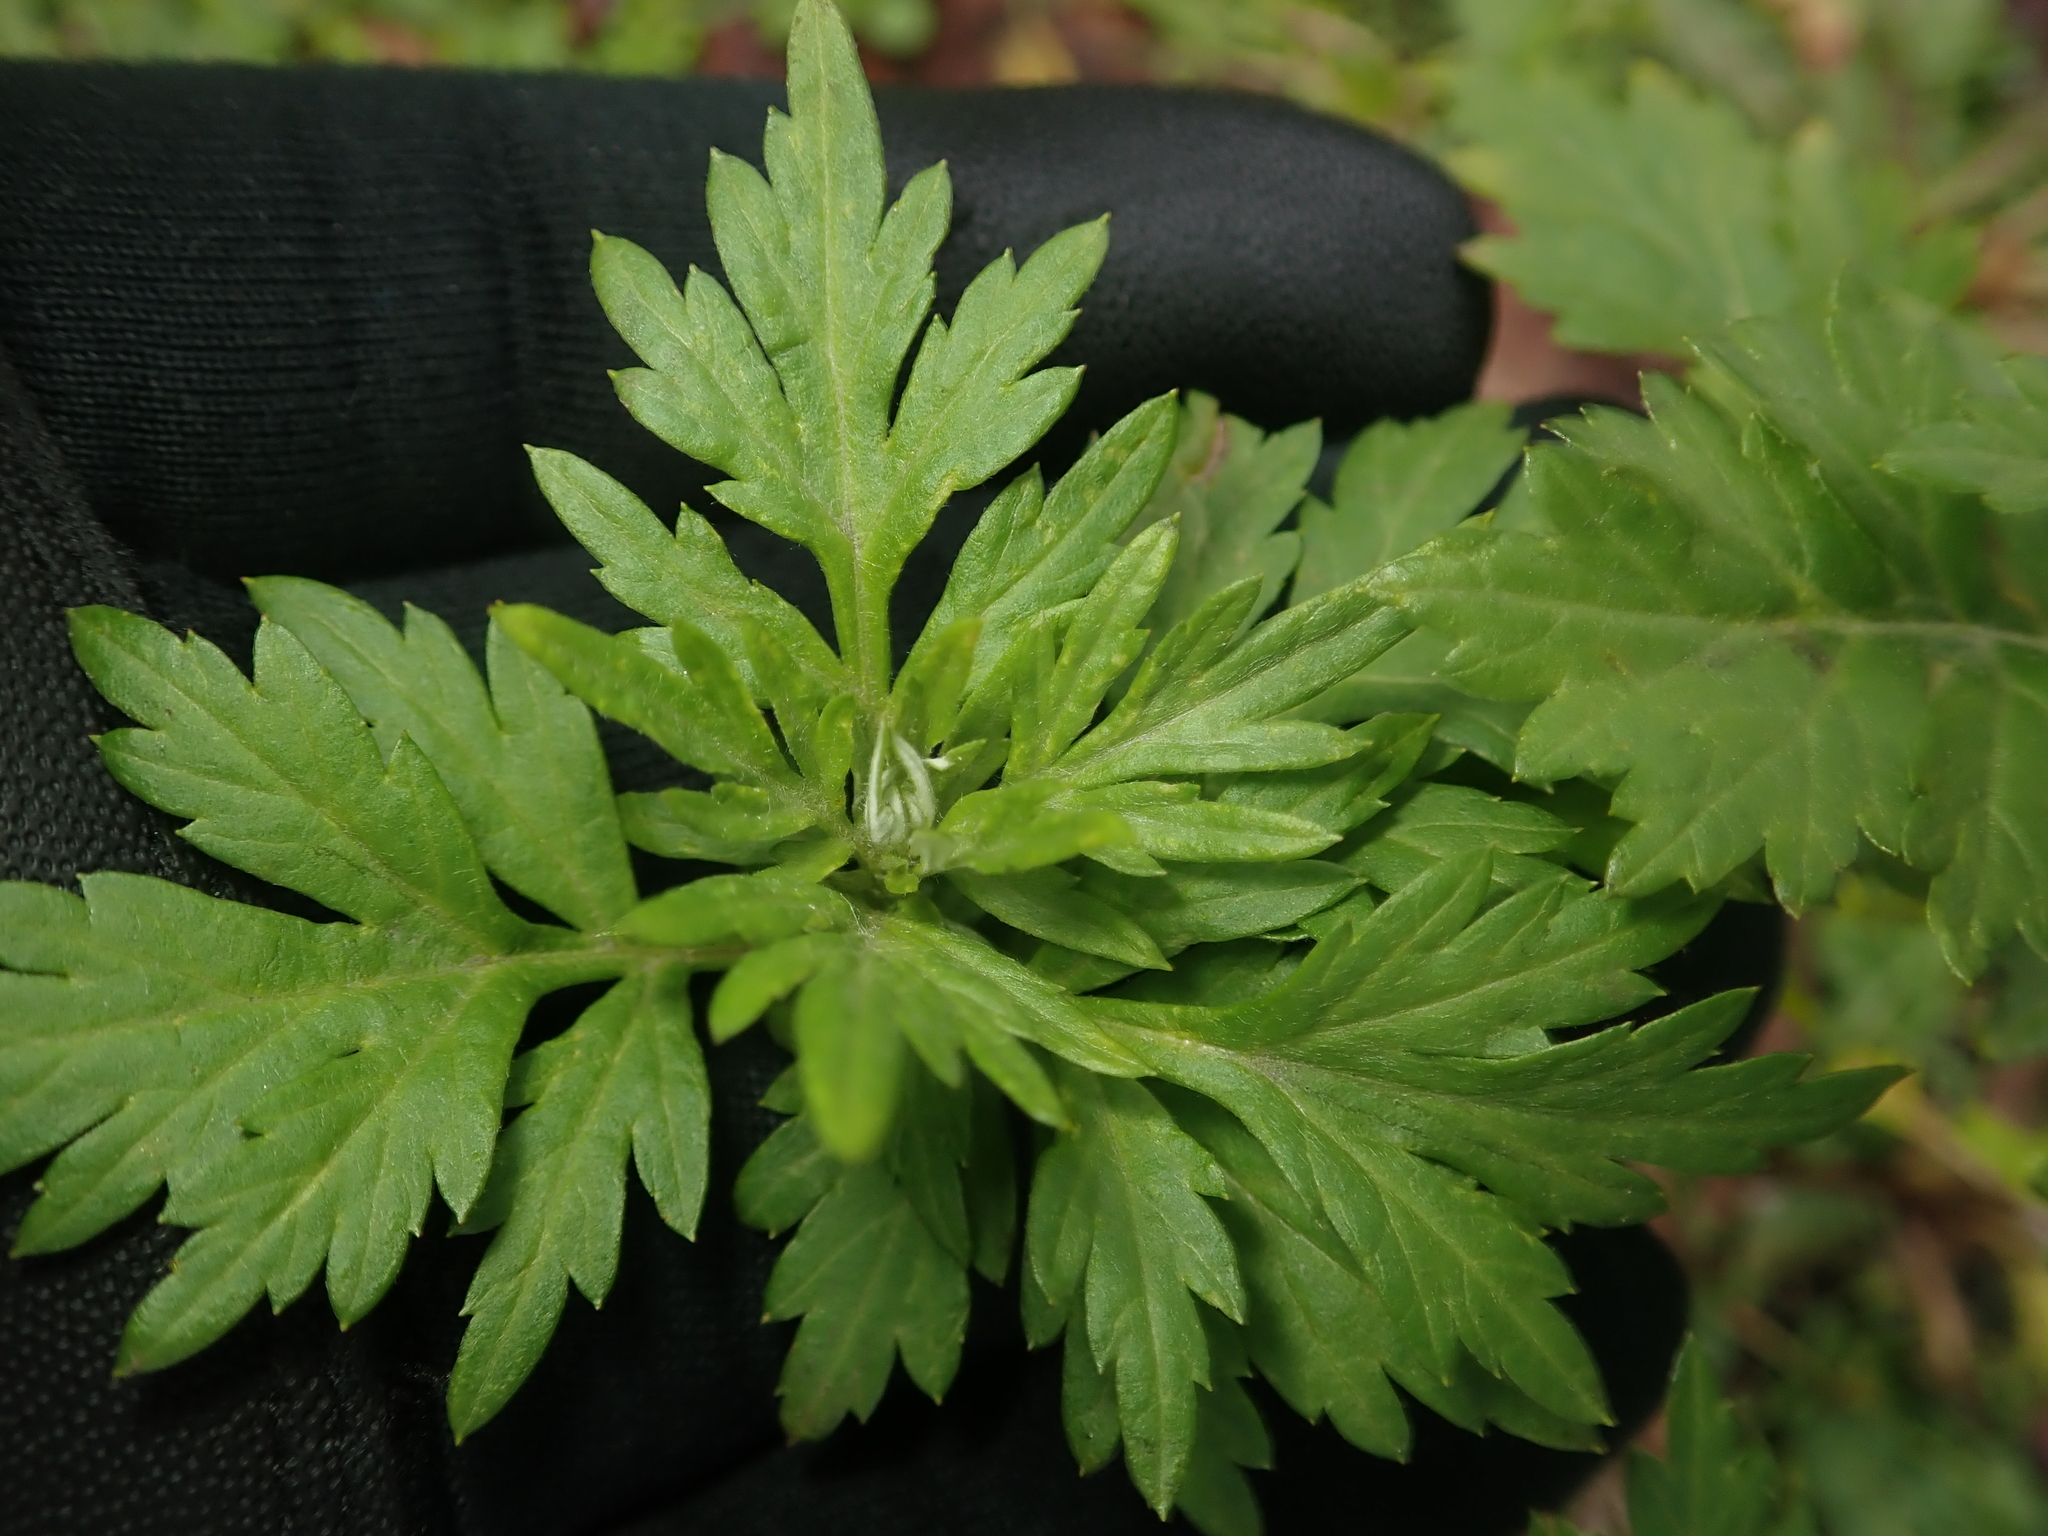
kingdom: Plantae
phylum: Tracheophyta
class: Magnoliopsida
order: Asterales
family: Asteraceae
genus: Artemisia
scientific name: Artemisia vulgaris
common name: Mugwort
